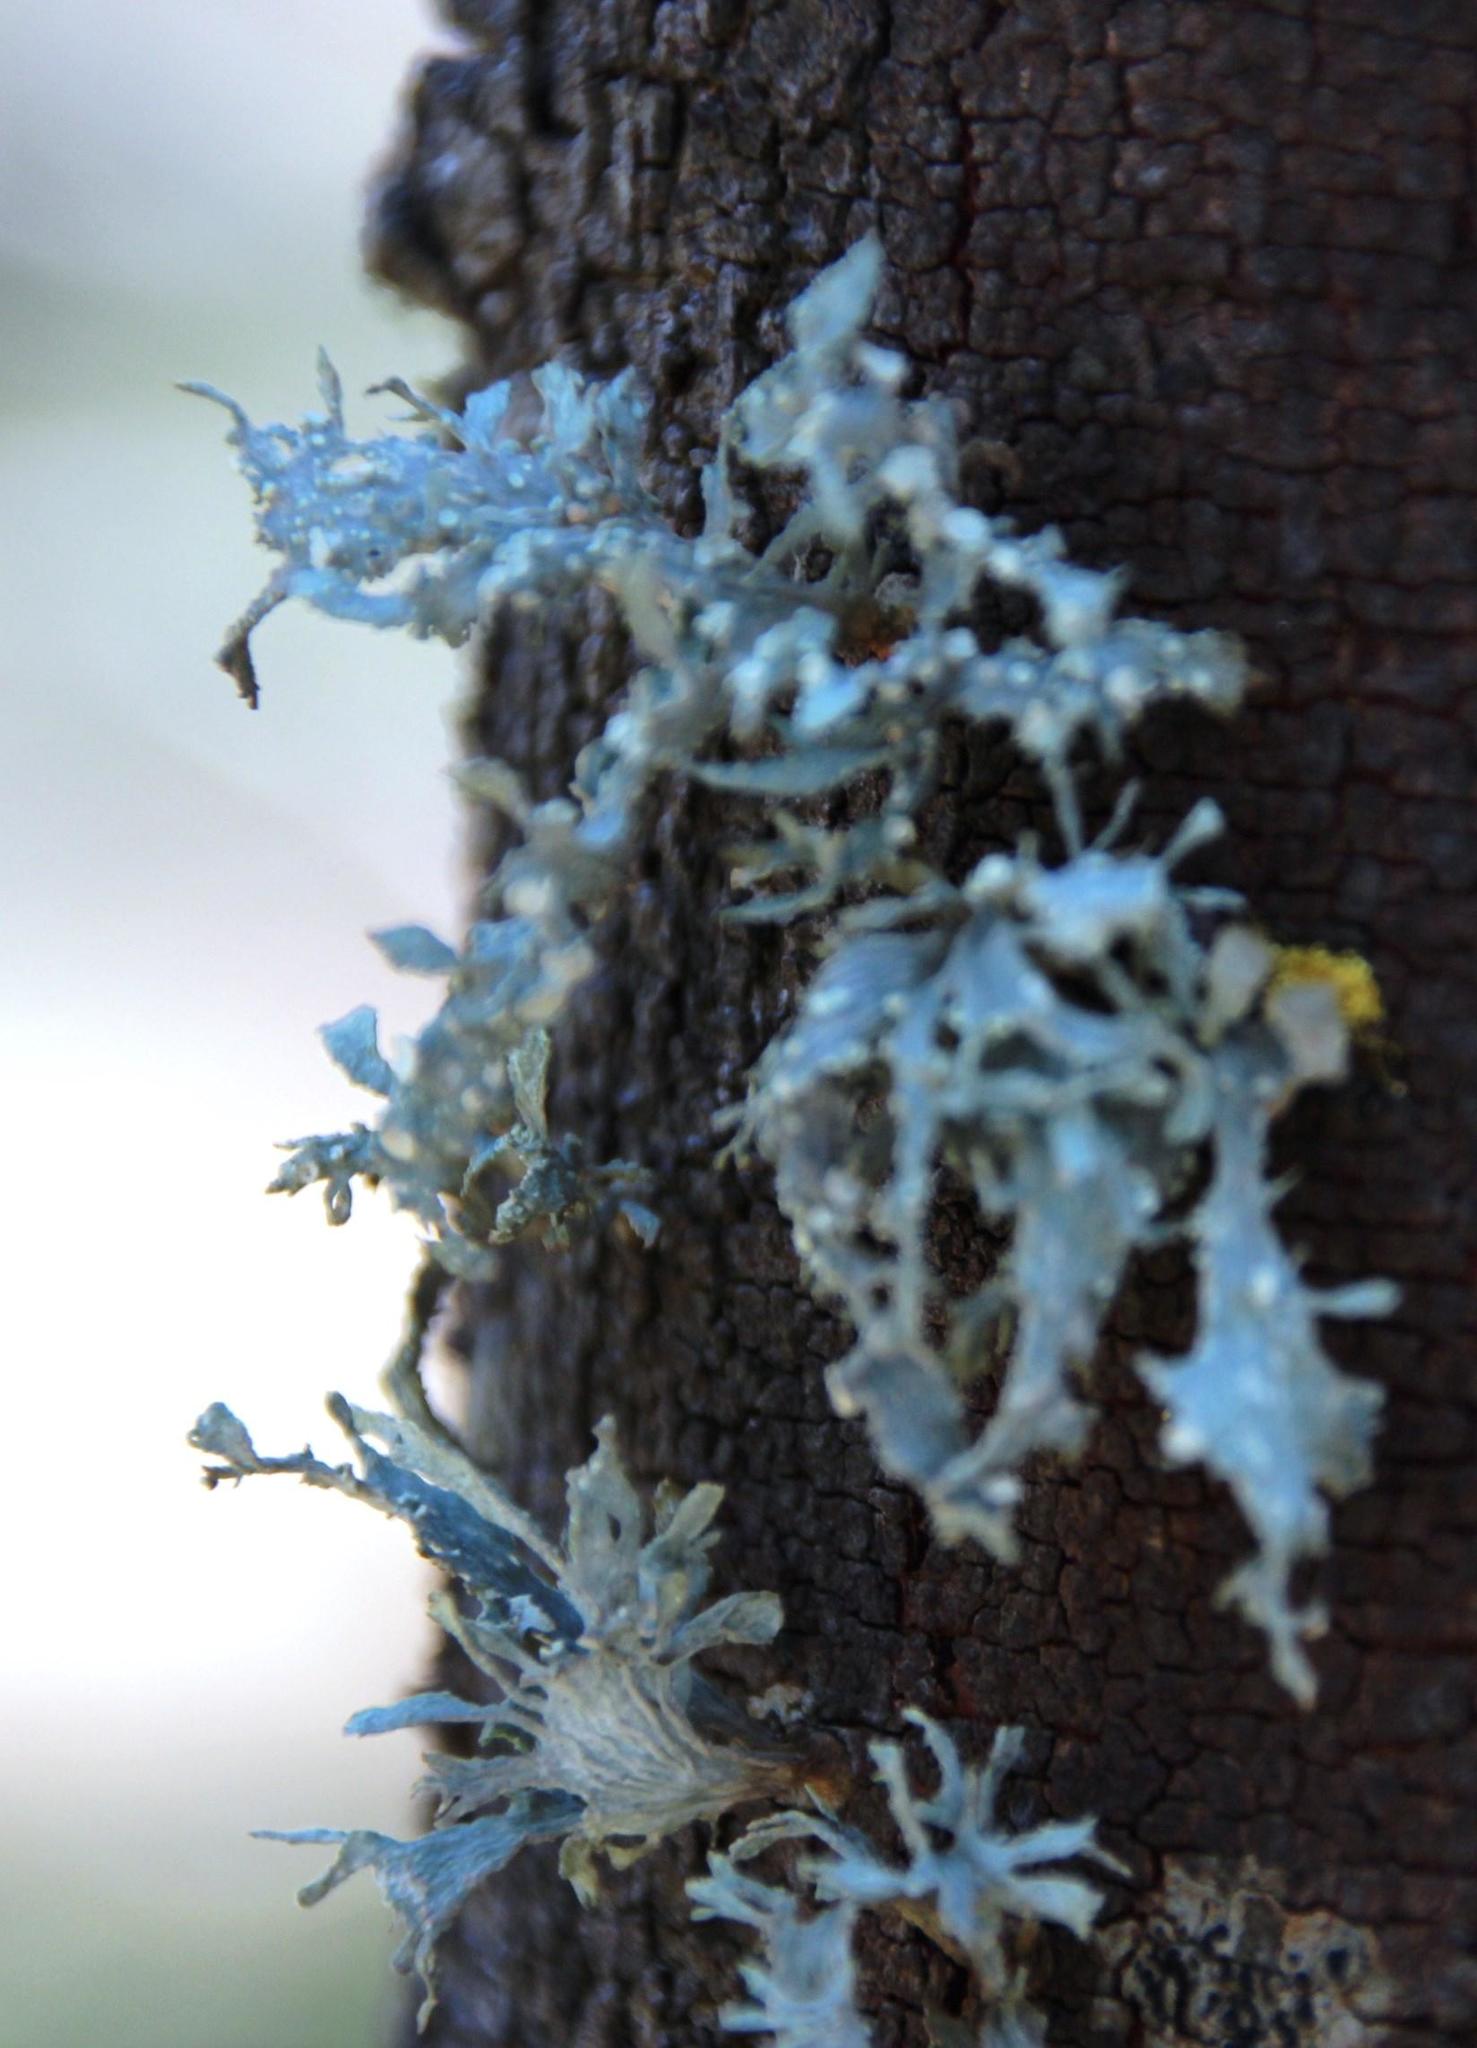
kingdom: Fungi
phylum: Ascomycota
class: Lecanoromycetes
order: Lecanorales
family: Ramalinaceae
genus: Ramalina
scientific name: Ramalina celastri
